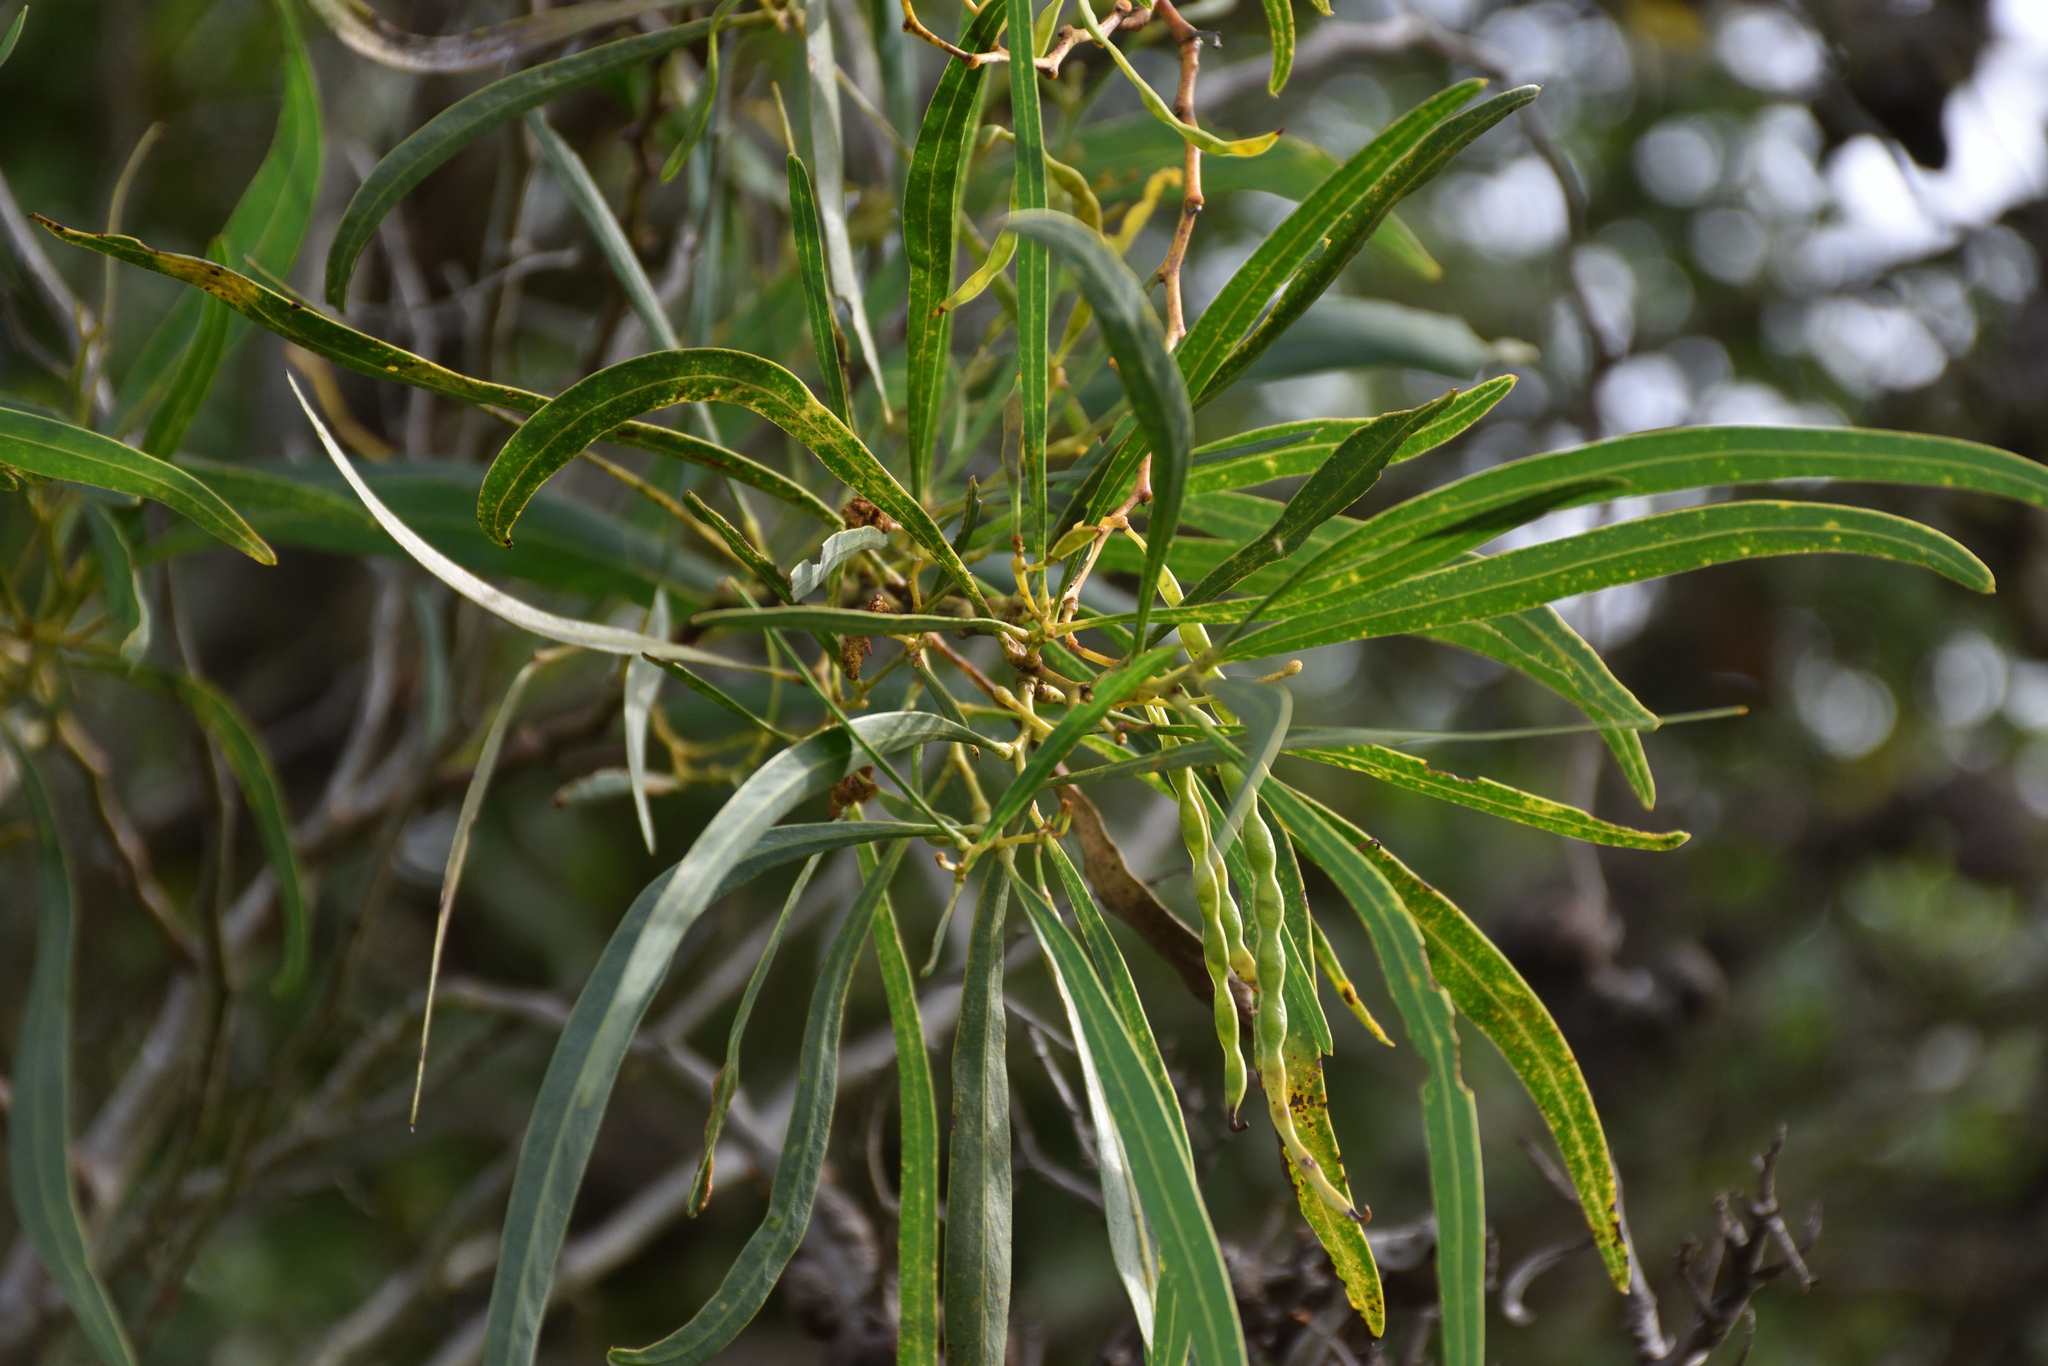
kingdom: Plantae
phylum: Tracheophyta
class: Magnoliopsida
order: Fabales
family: Fabaceae
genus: Acacia
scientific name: Acacia saligna
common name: Orange wattle
